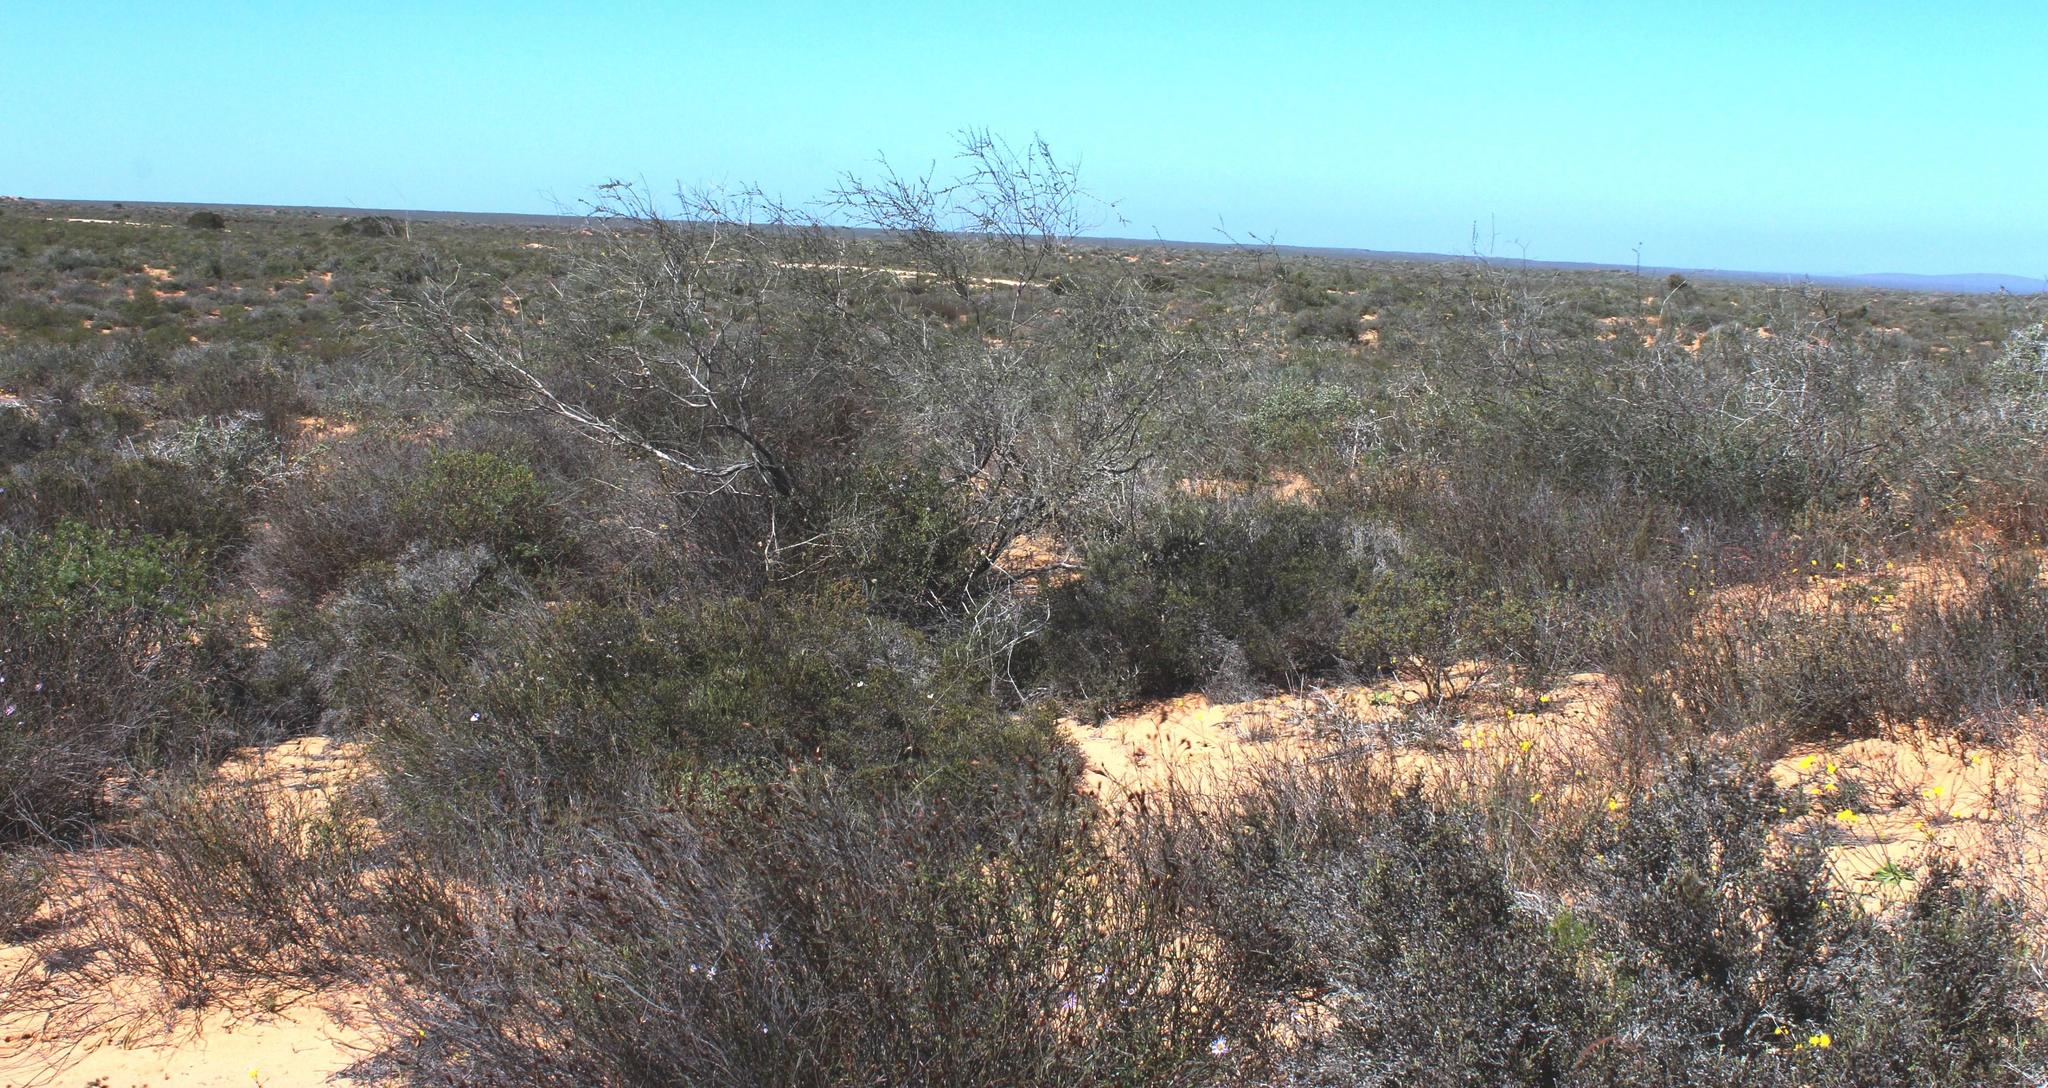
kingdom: Plantae
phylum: Tracheophyta
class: Magnoliopsida
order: Fabales
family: Fabaceae
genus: Wiborgia
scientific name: Wiborgia obcordata
